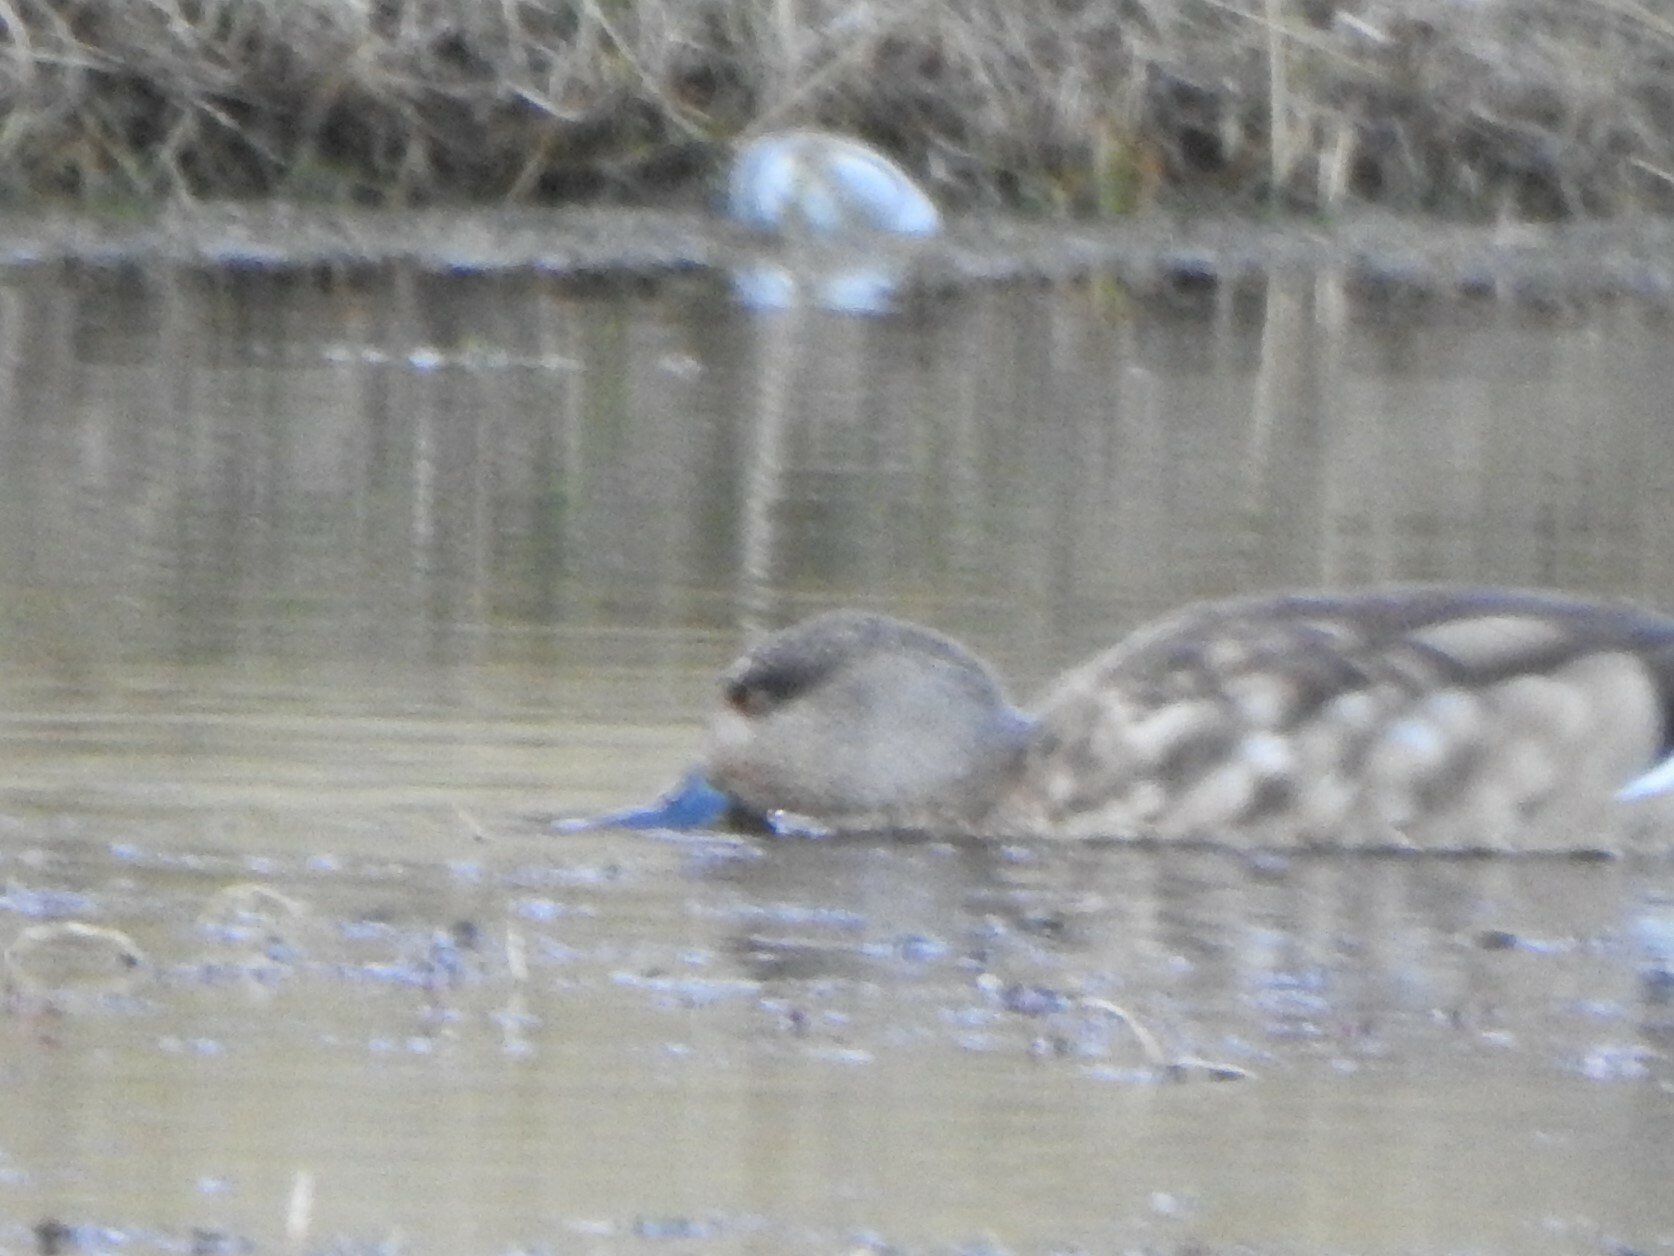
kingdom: Animalia
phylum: Chordata
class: Aves
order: Anseriformes
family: Anatidae
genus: Lophonetta
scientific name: Lophonetta specularioides
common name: Crested duck
